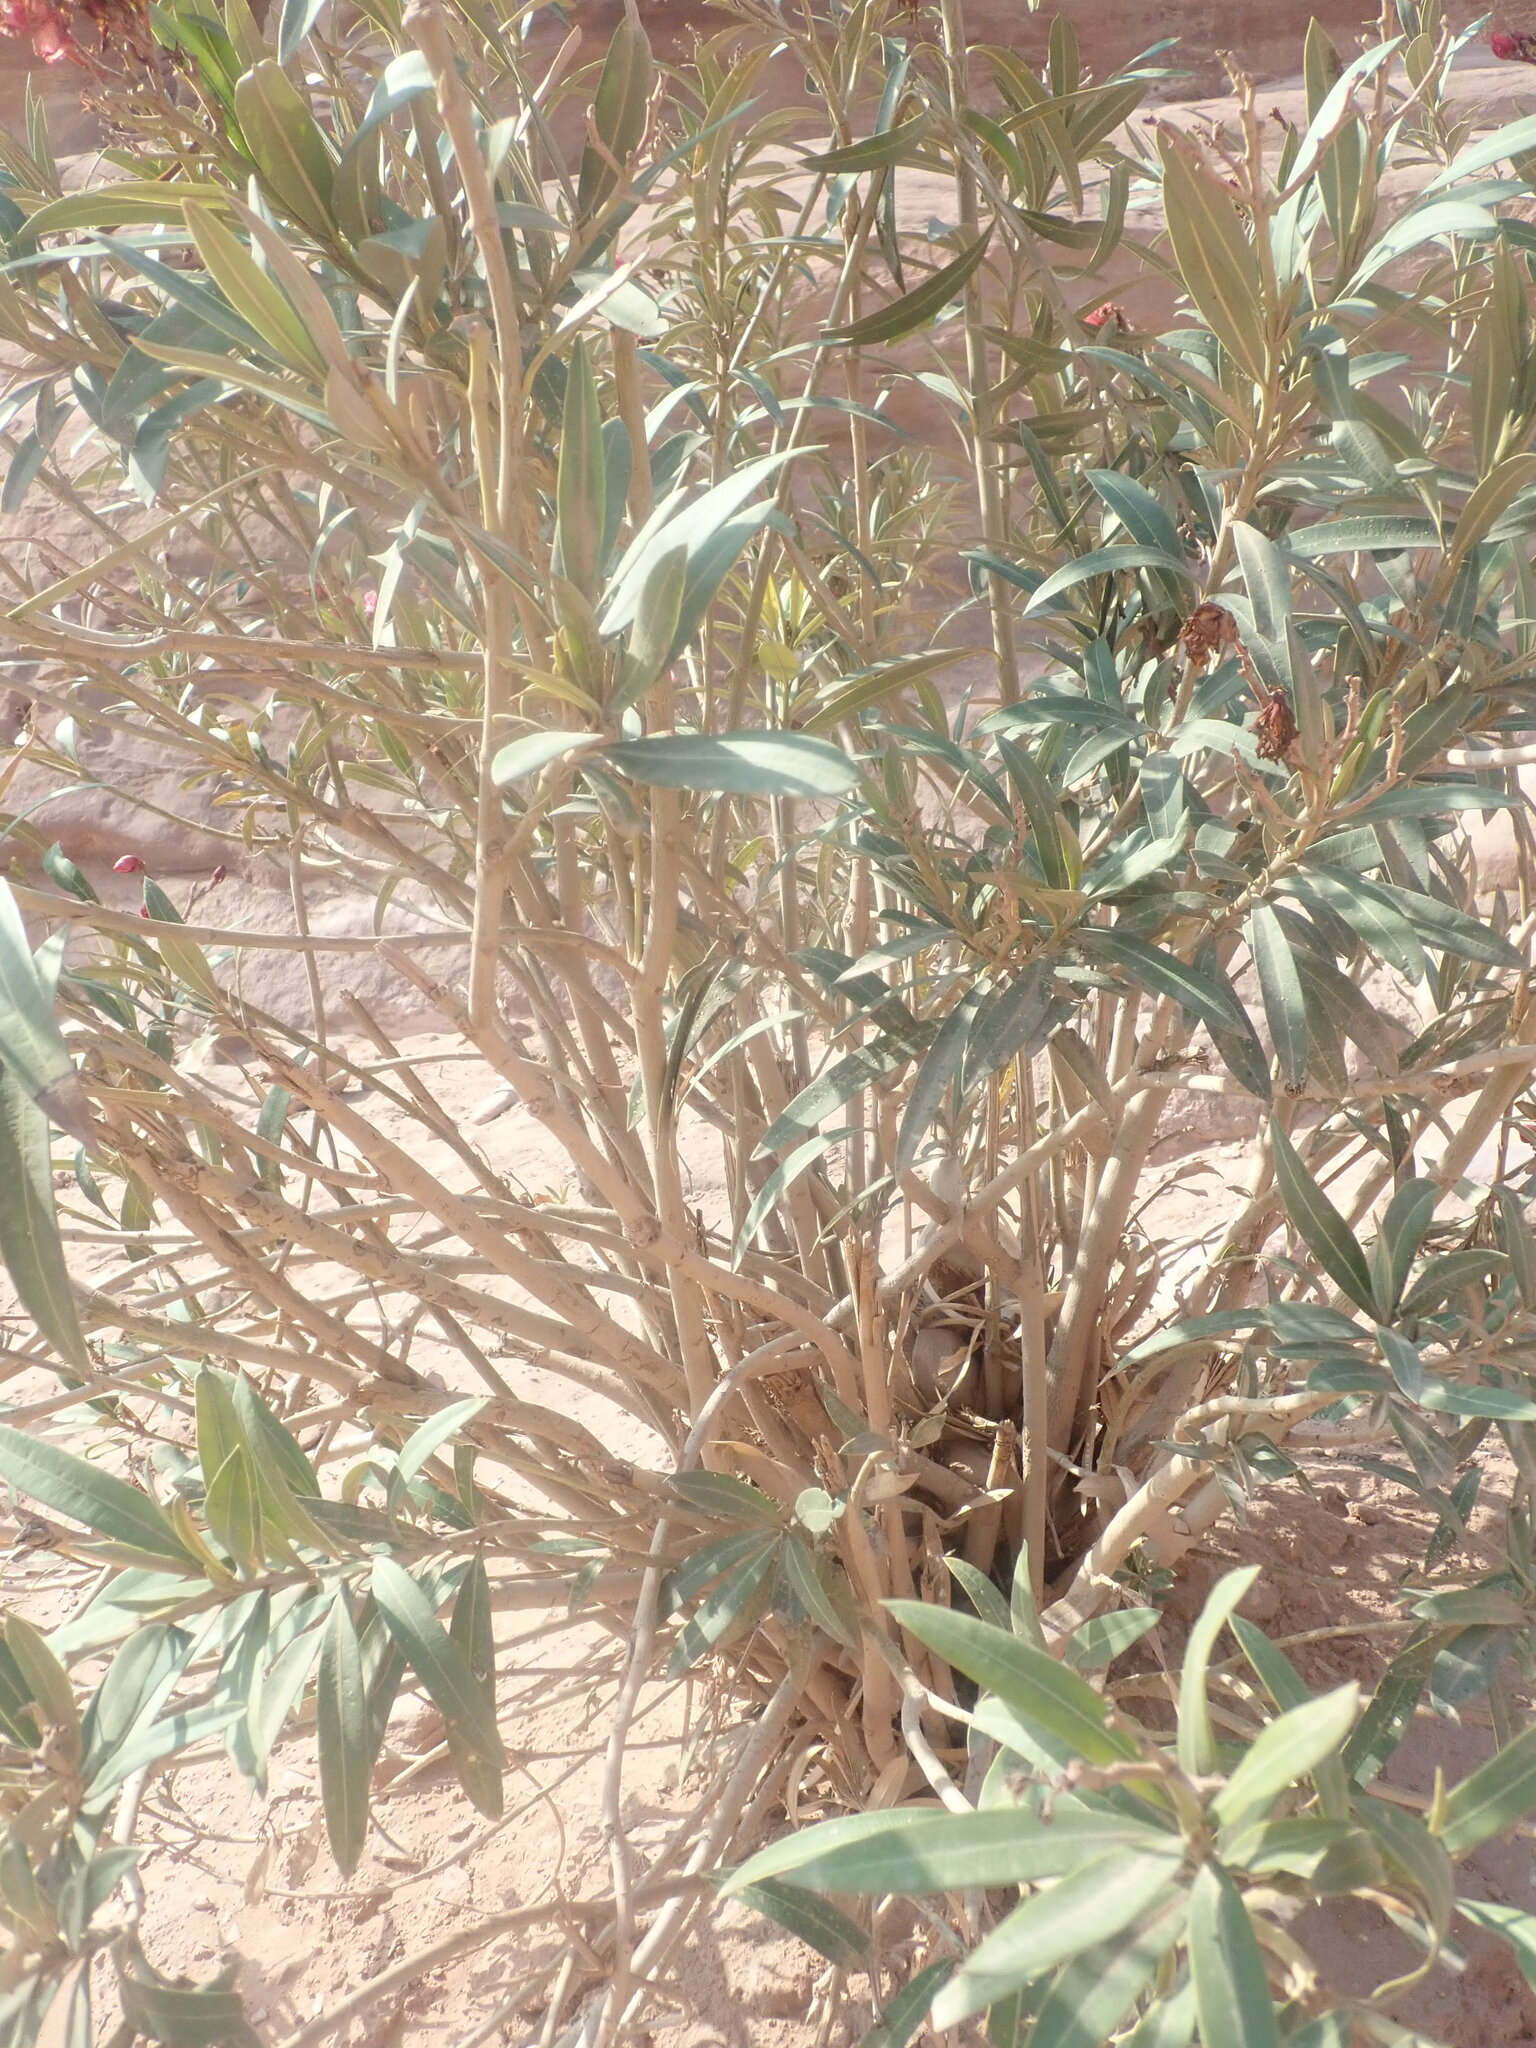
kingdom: Plantae
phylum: Tracheophyta
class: Magnoliopsida
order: Gentianales
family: Apocynaceae
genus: Nerium
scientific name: Nerium oleander
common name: Oleander
